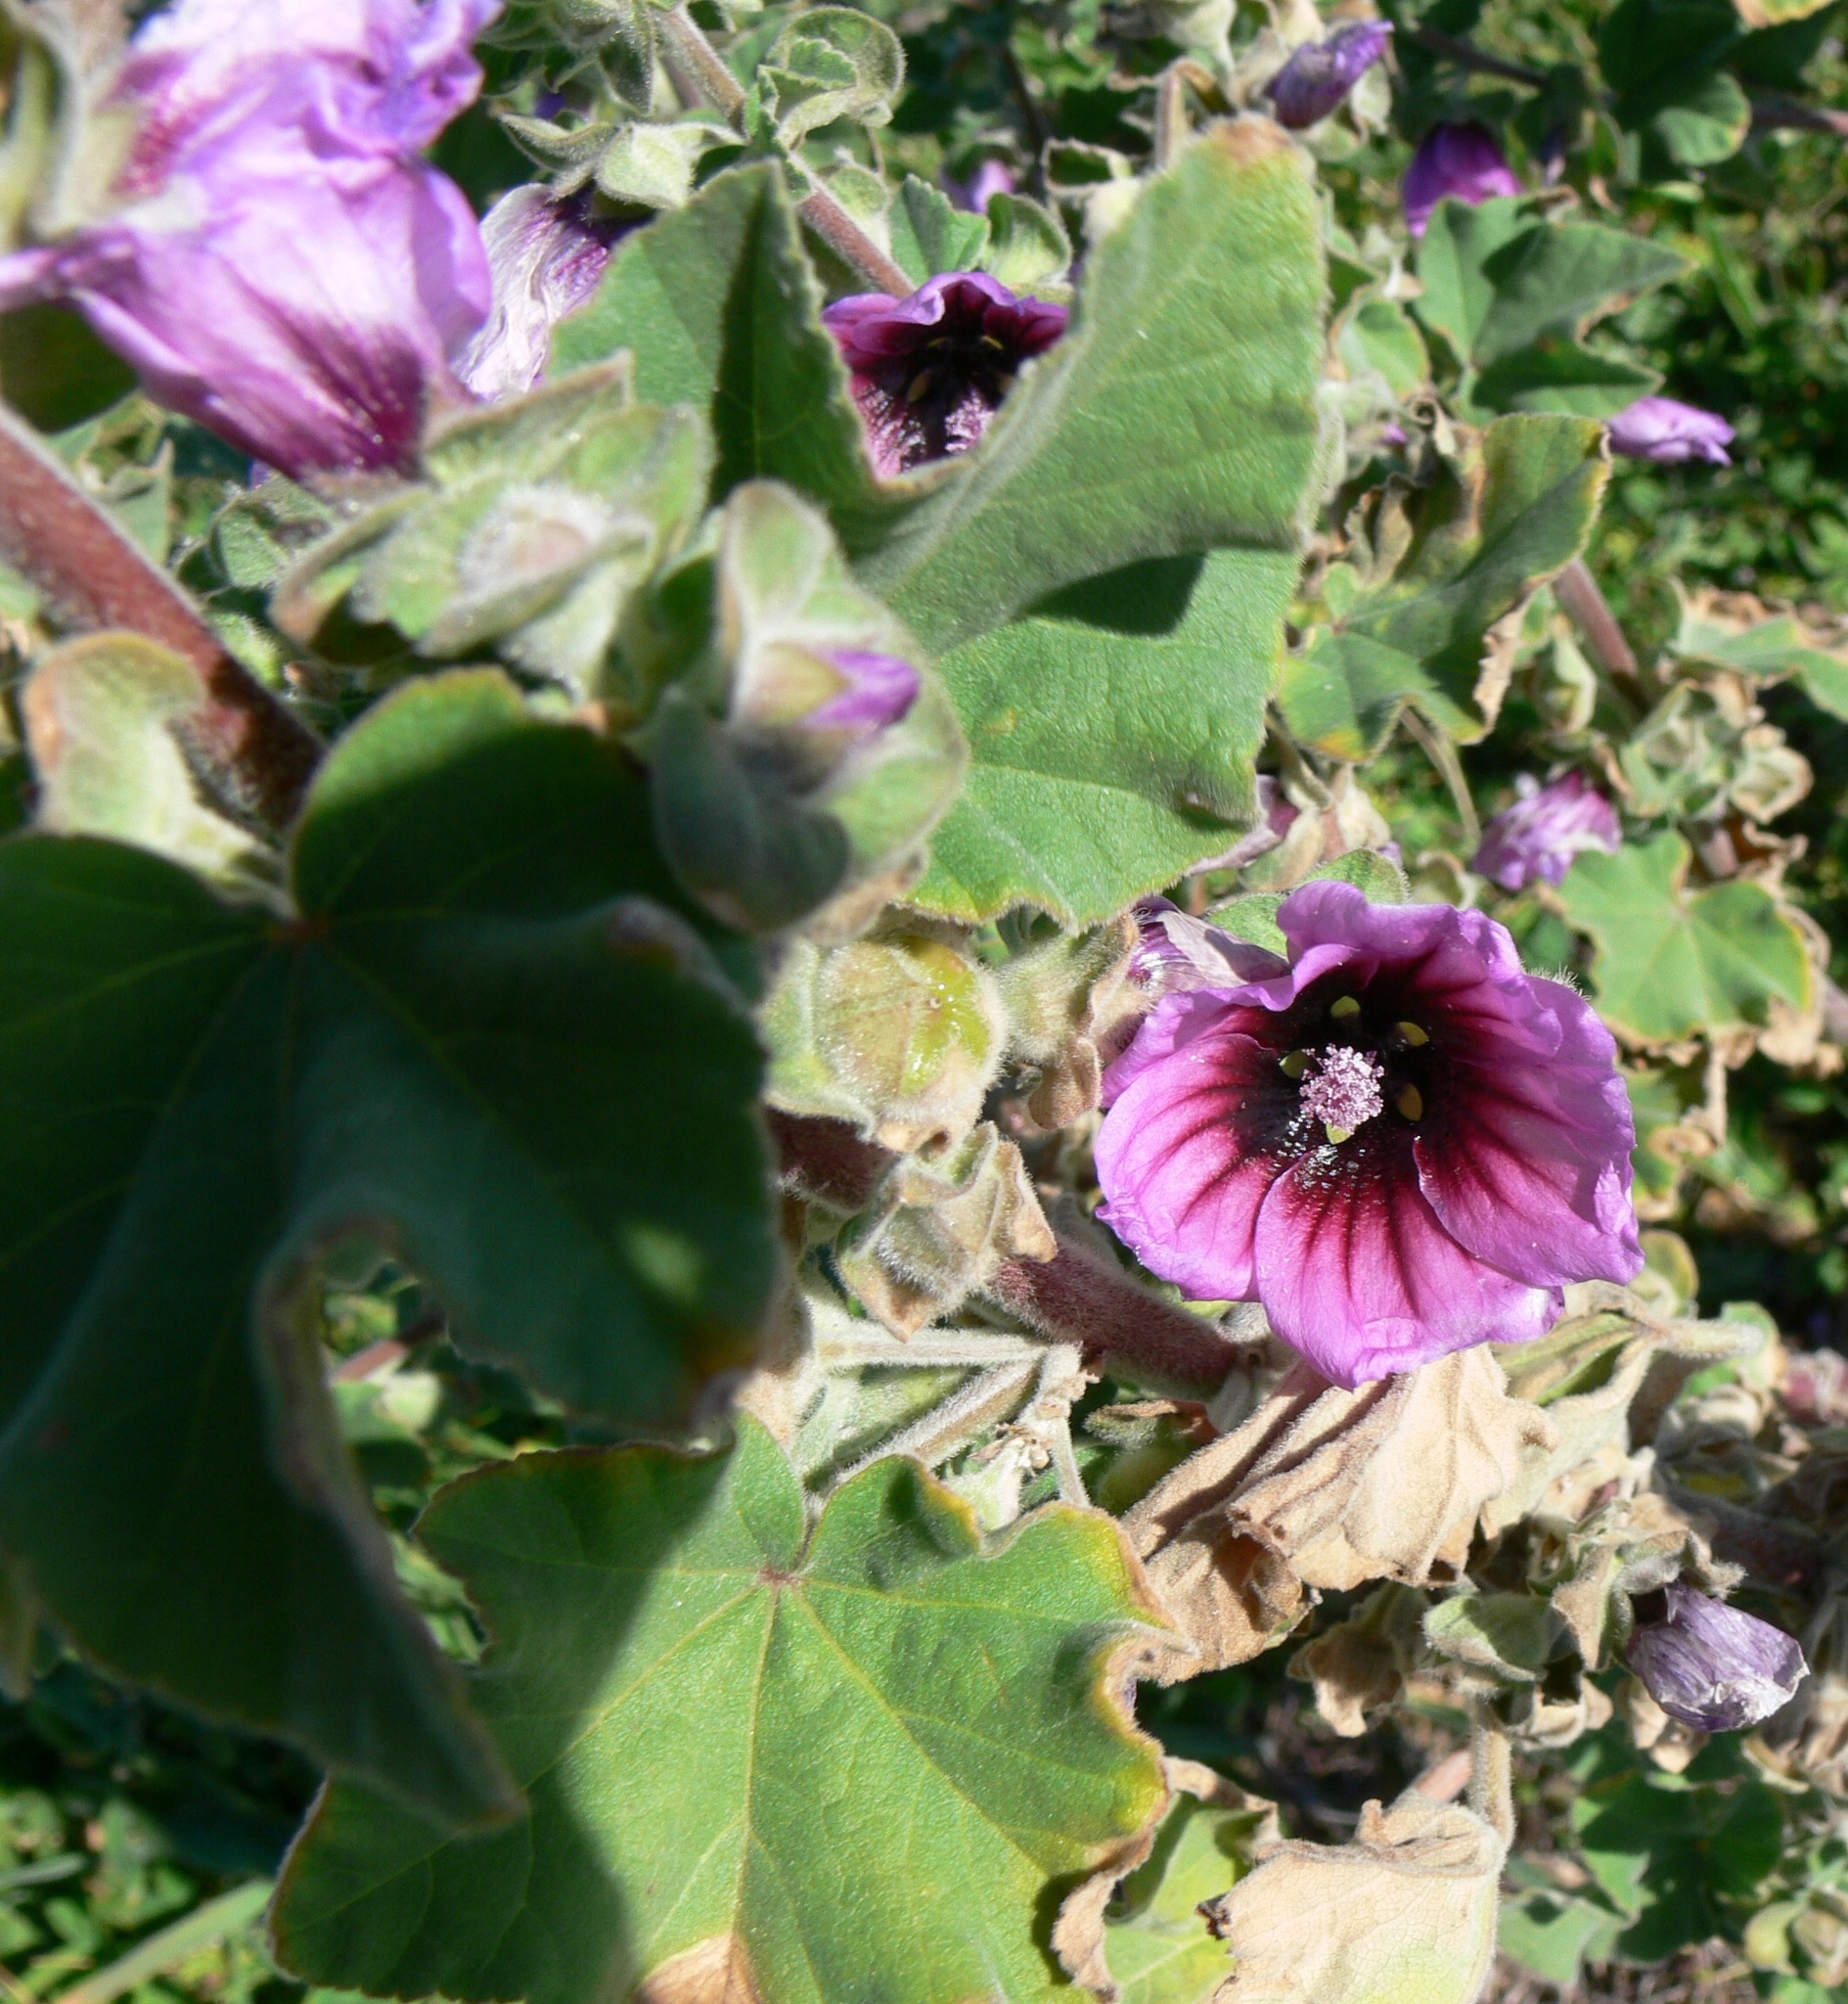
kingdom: Plantae
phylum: Tracheophyta
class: Magnoliopsida
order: Malvales
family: Malvaceae
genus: Malva
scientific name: Malva arborea
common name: Tree mallow
